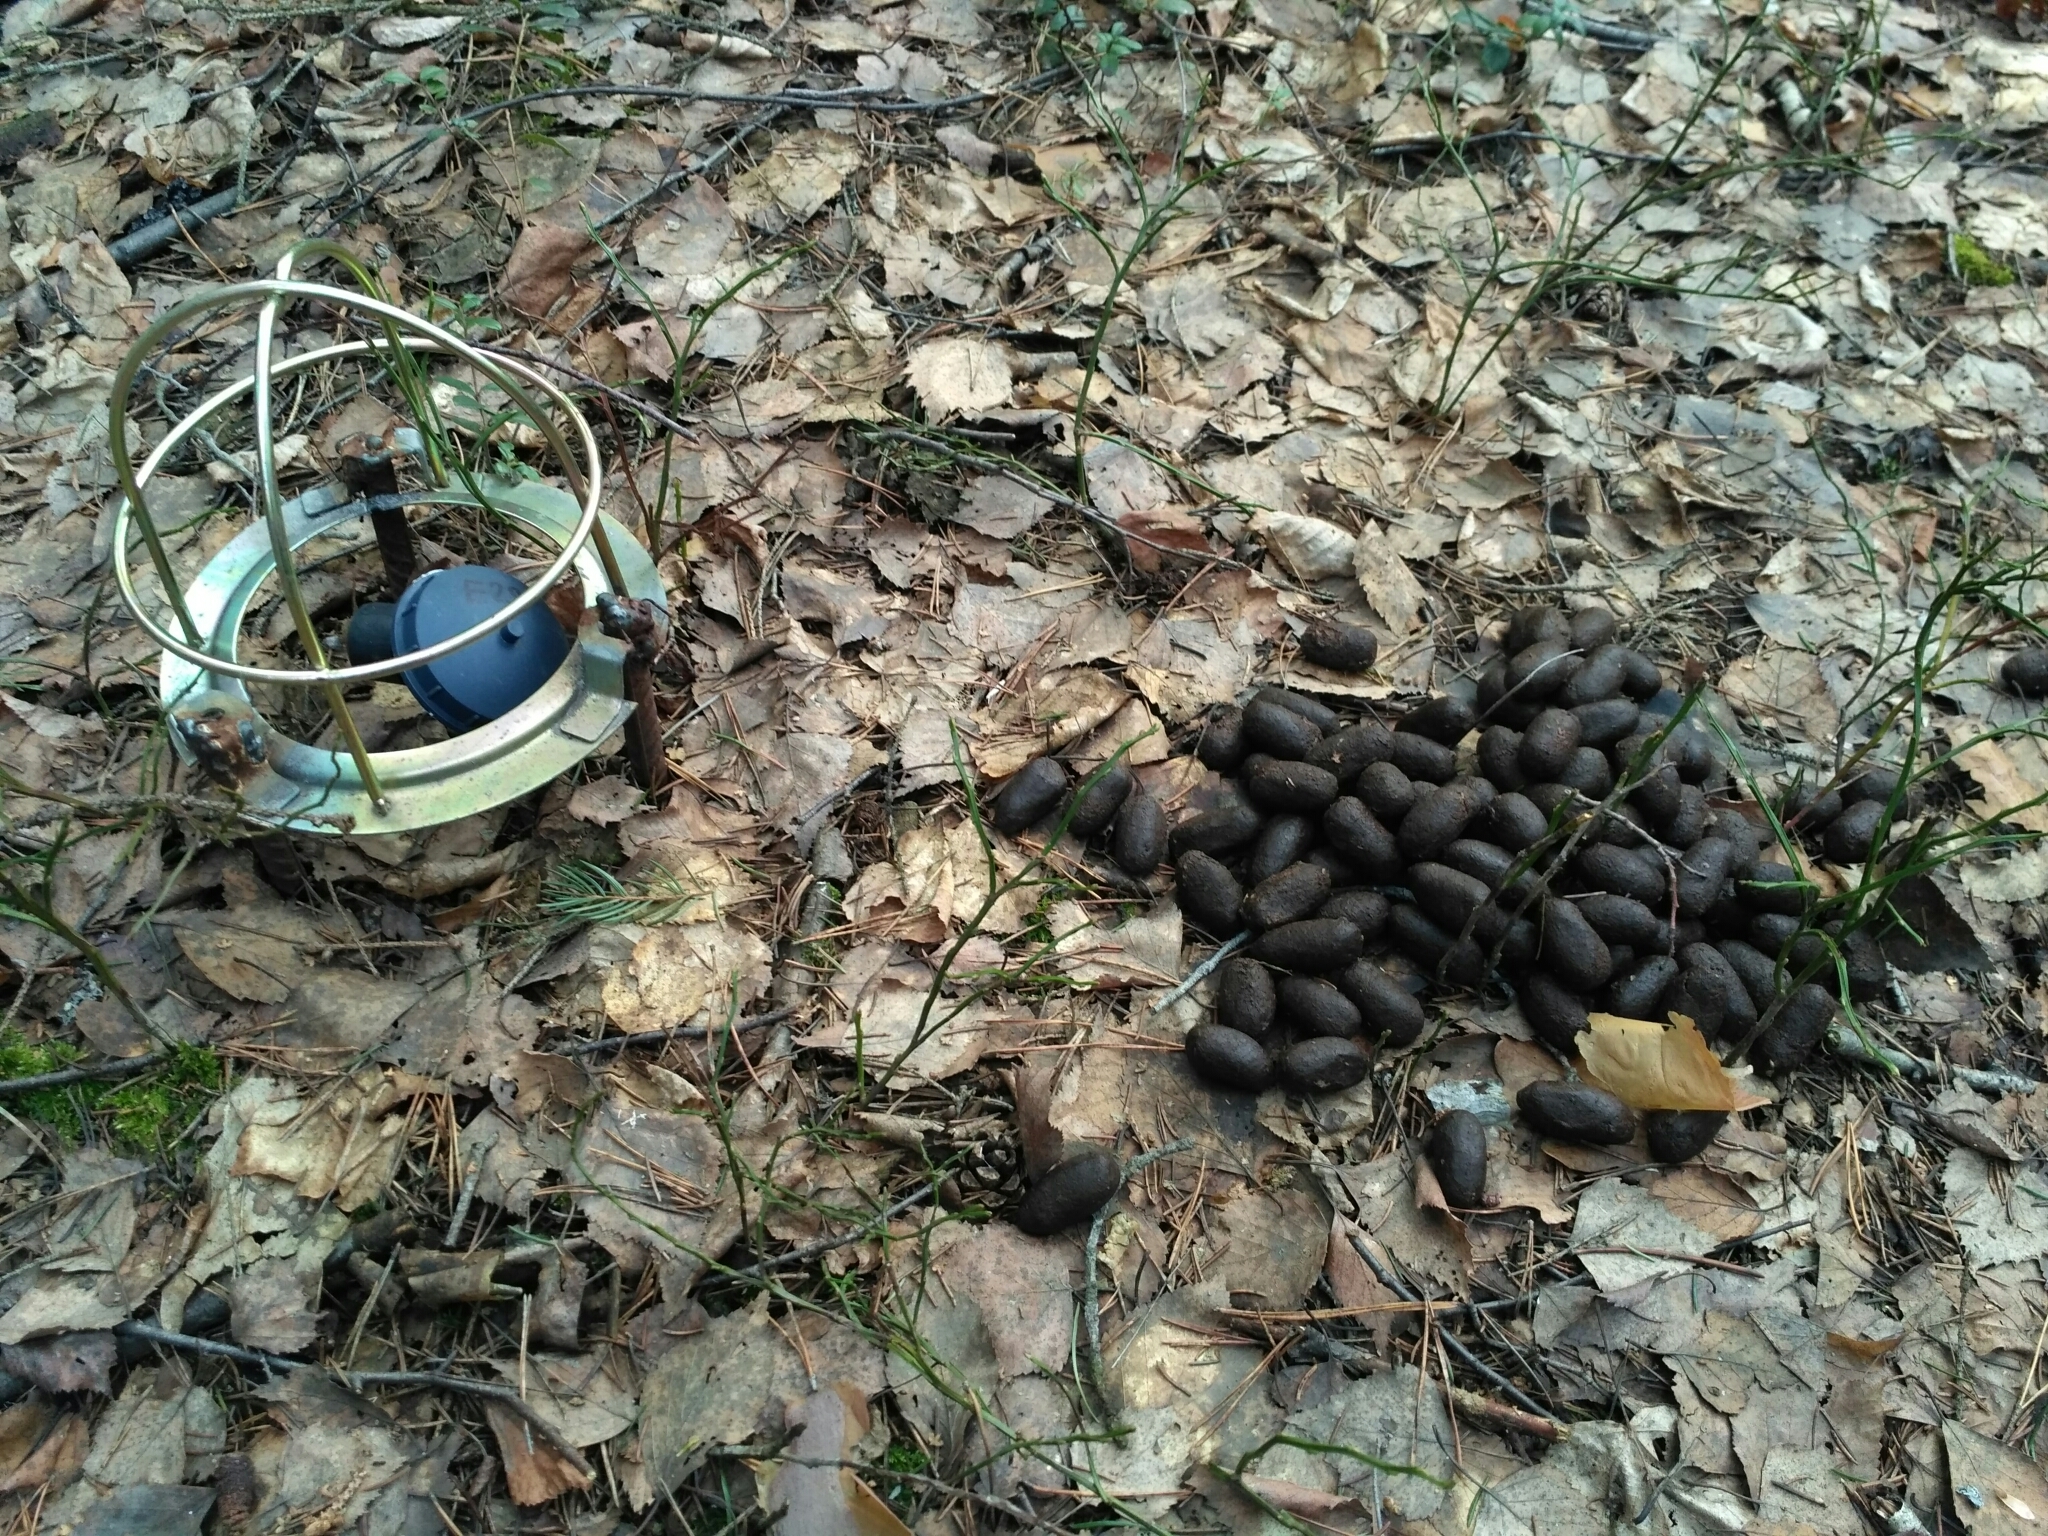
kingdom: Animalia
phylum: Chordata
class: Mammalia
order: Artiodactyla
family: Cervidae
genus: Alces
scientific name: Alces alces
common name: Moose
